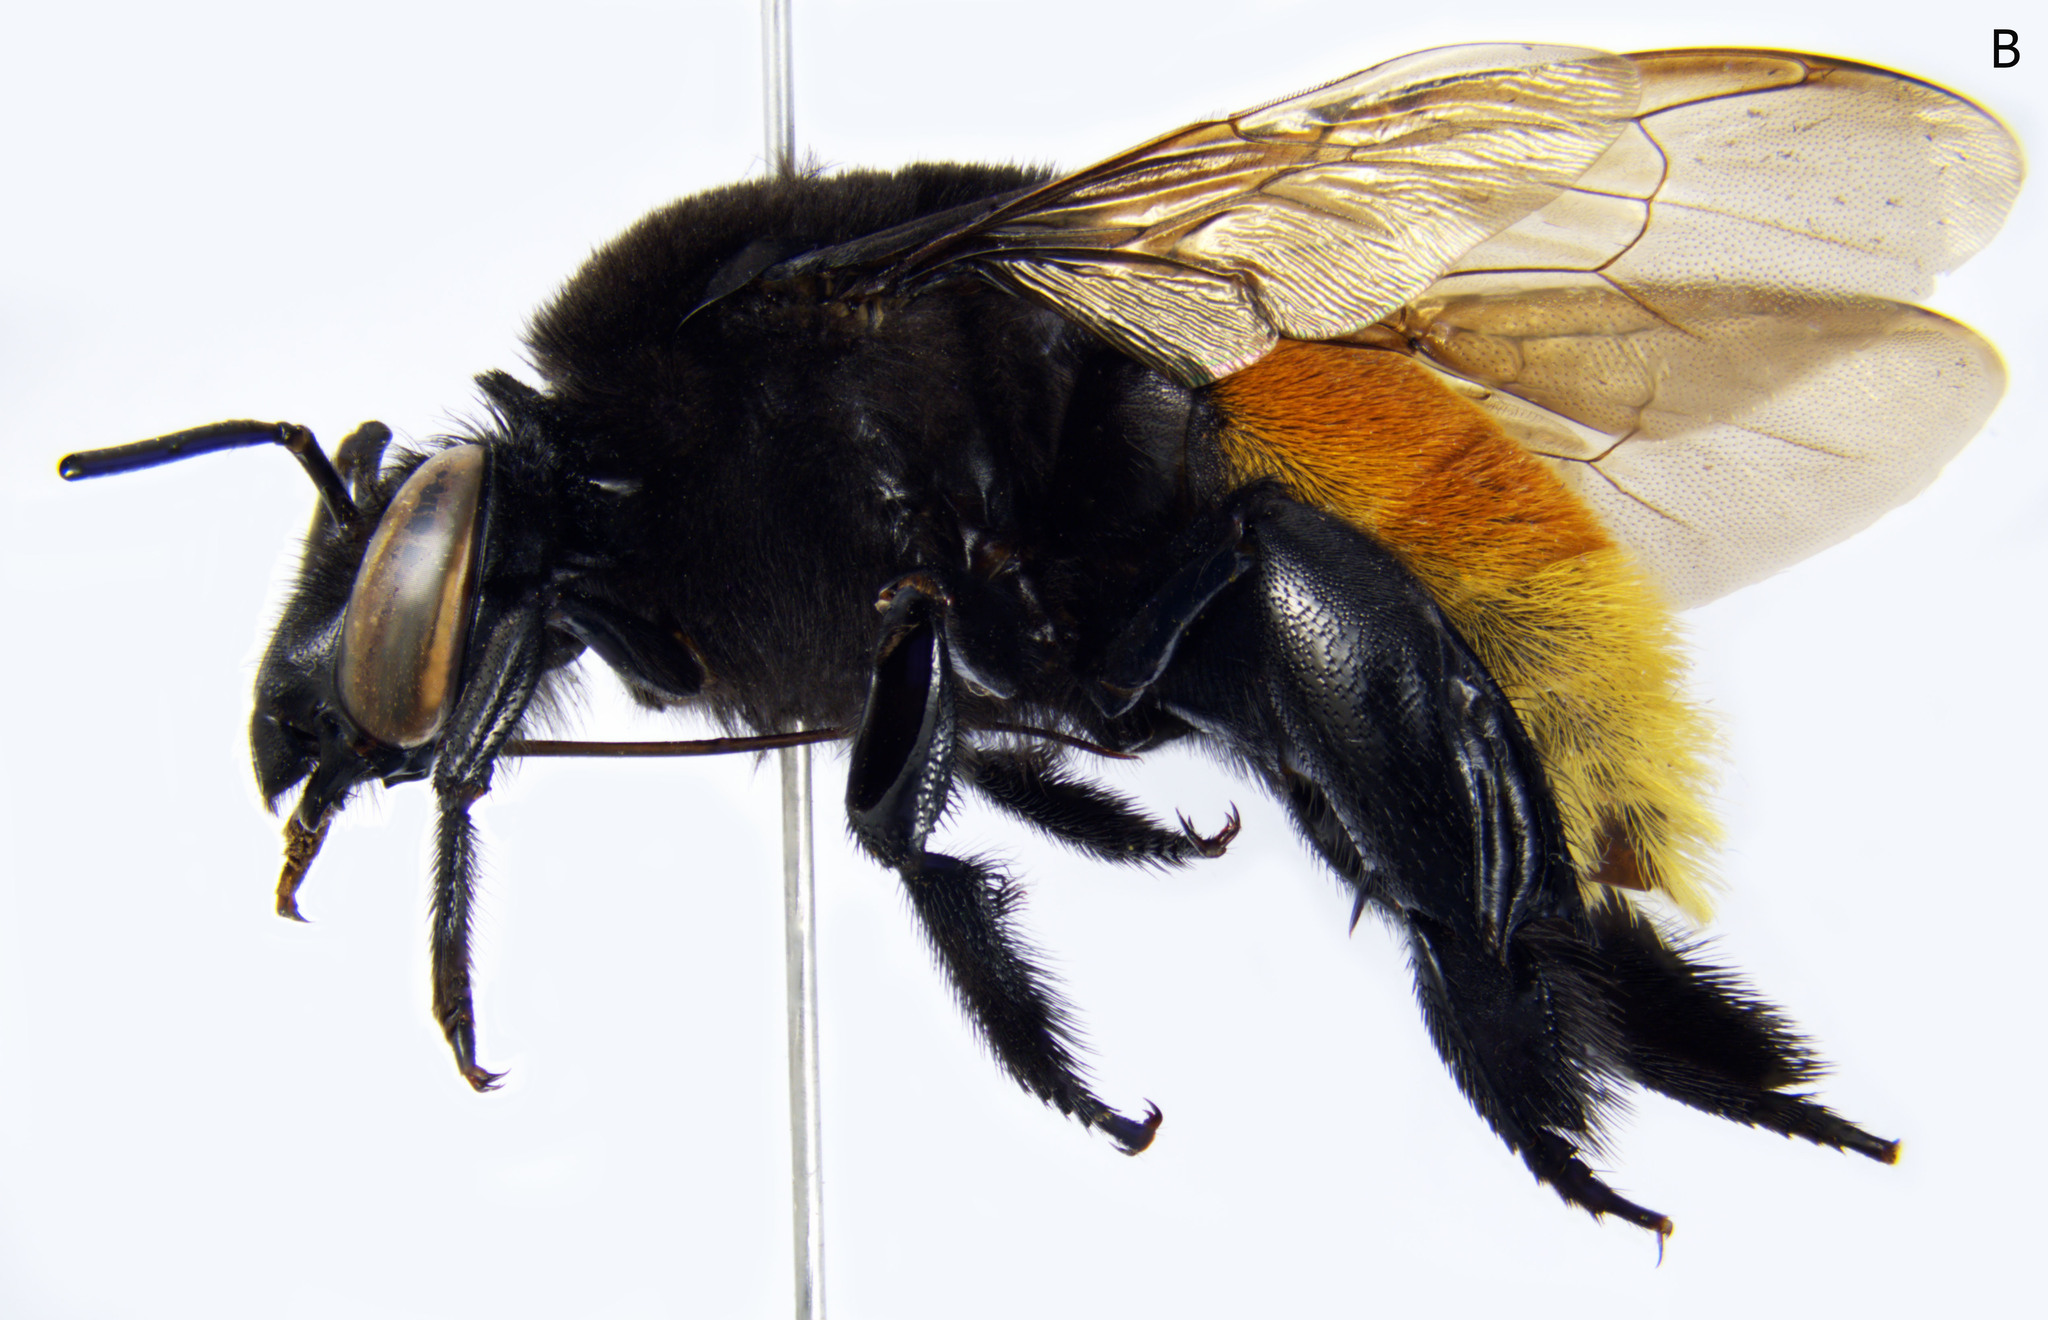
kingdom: Animalia
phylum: Arthropoda
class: Insecta
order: Hymenoptera
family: Apidae
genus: Eulaema
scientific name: Eulaema polychroma
